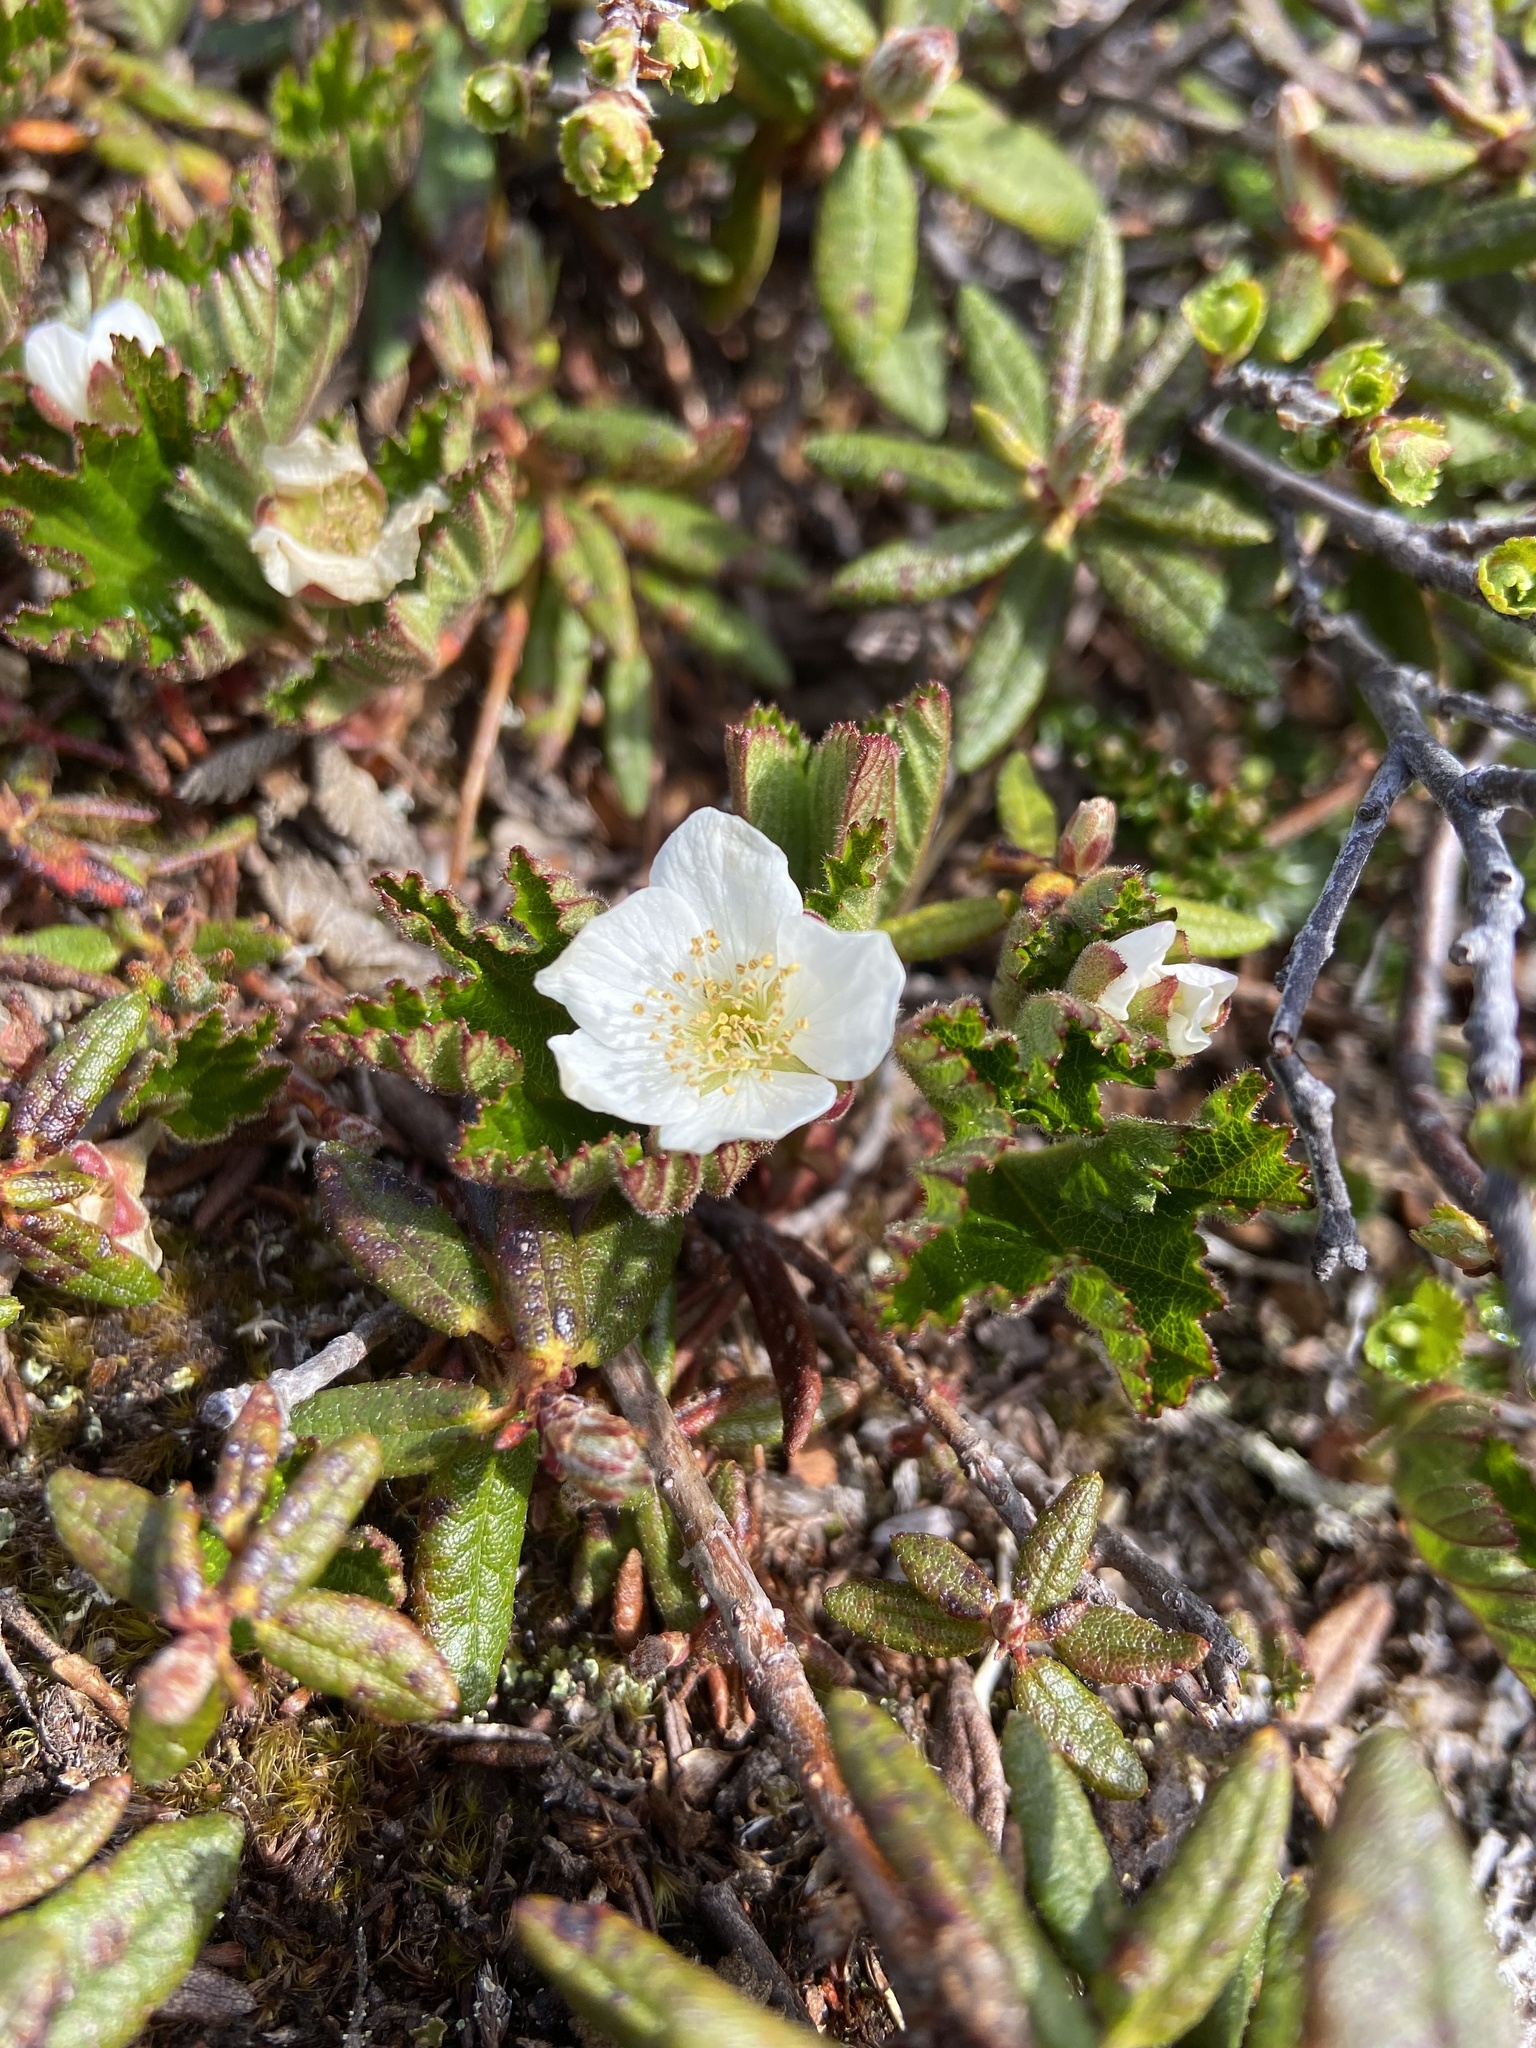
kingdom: Plantae
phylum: Tracheophyta
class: Magnoliopsida
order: Rosales
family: Rosaceae
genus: Rubus
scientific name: Rubus chamaemorus
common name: Cloudberry
